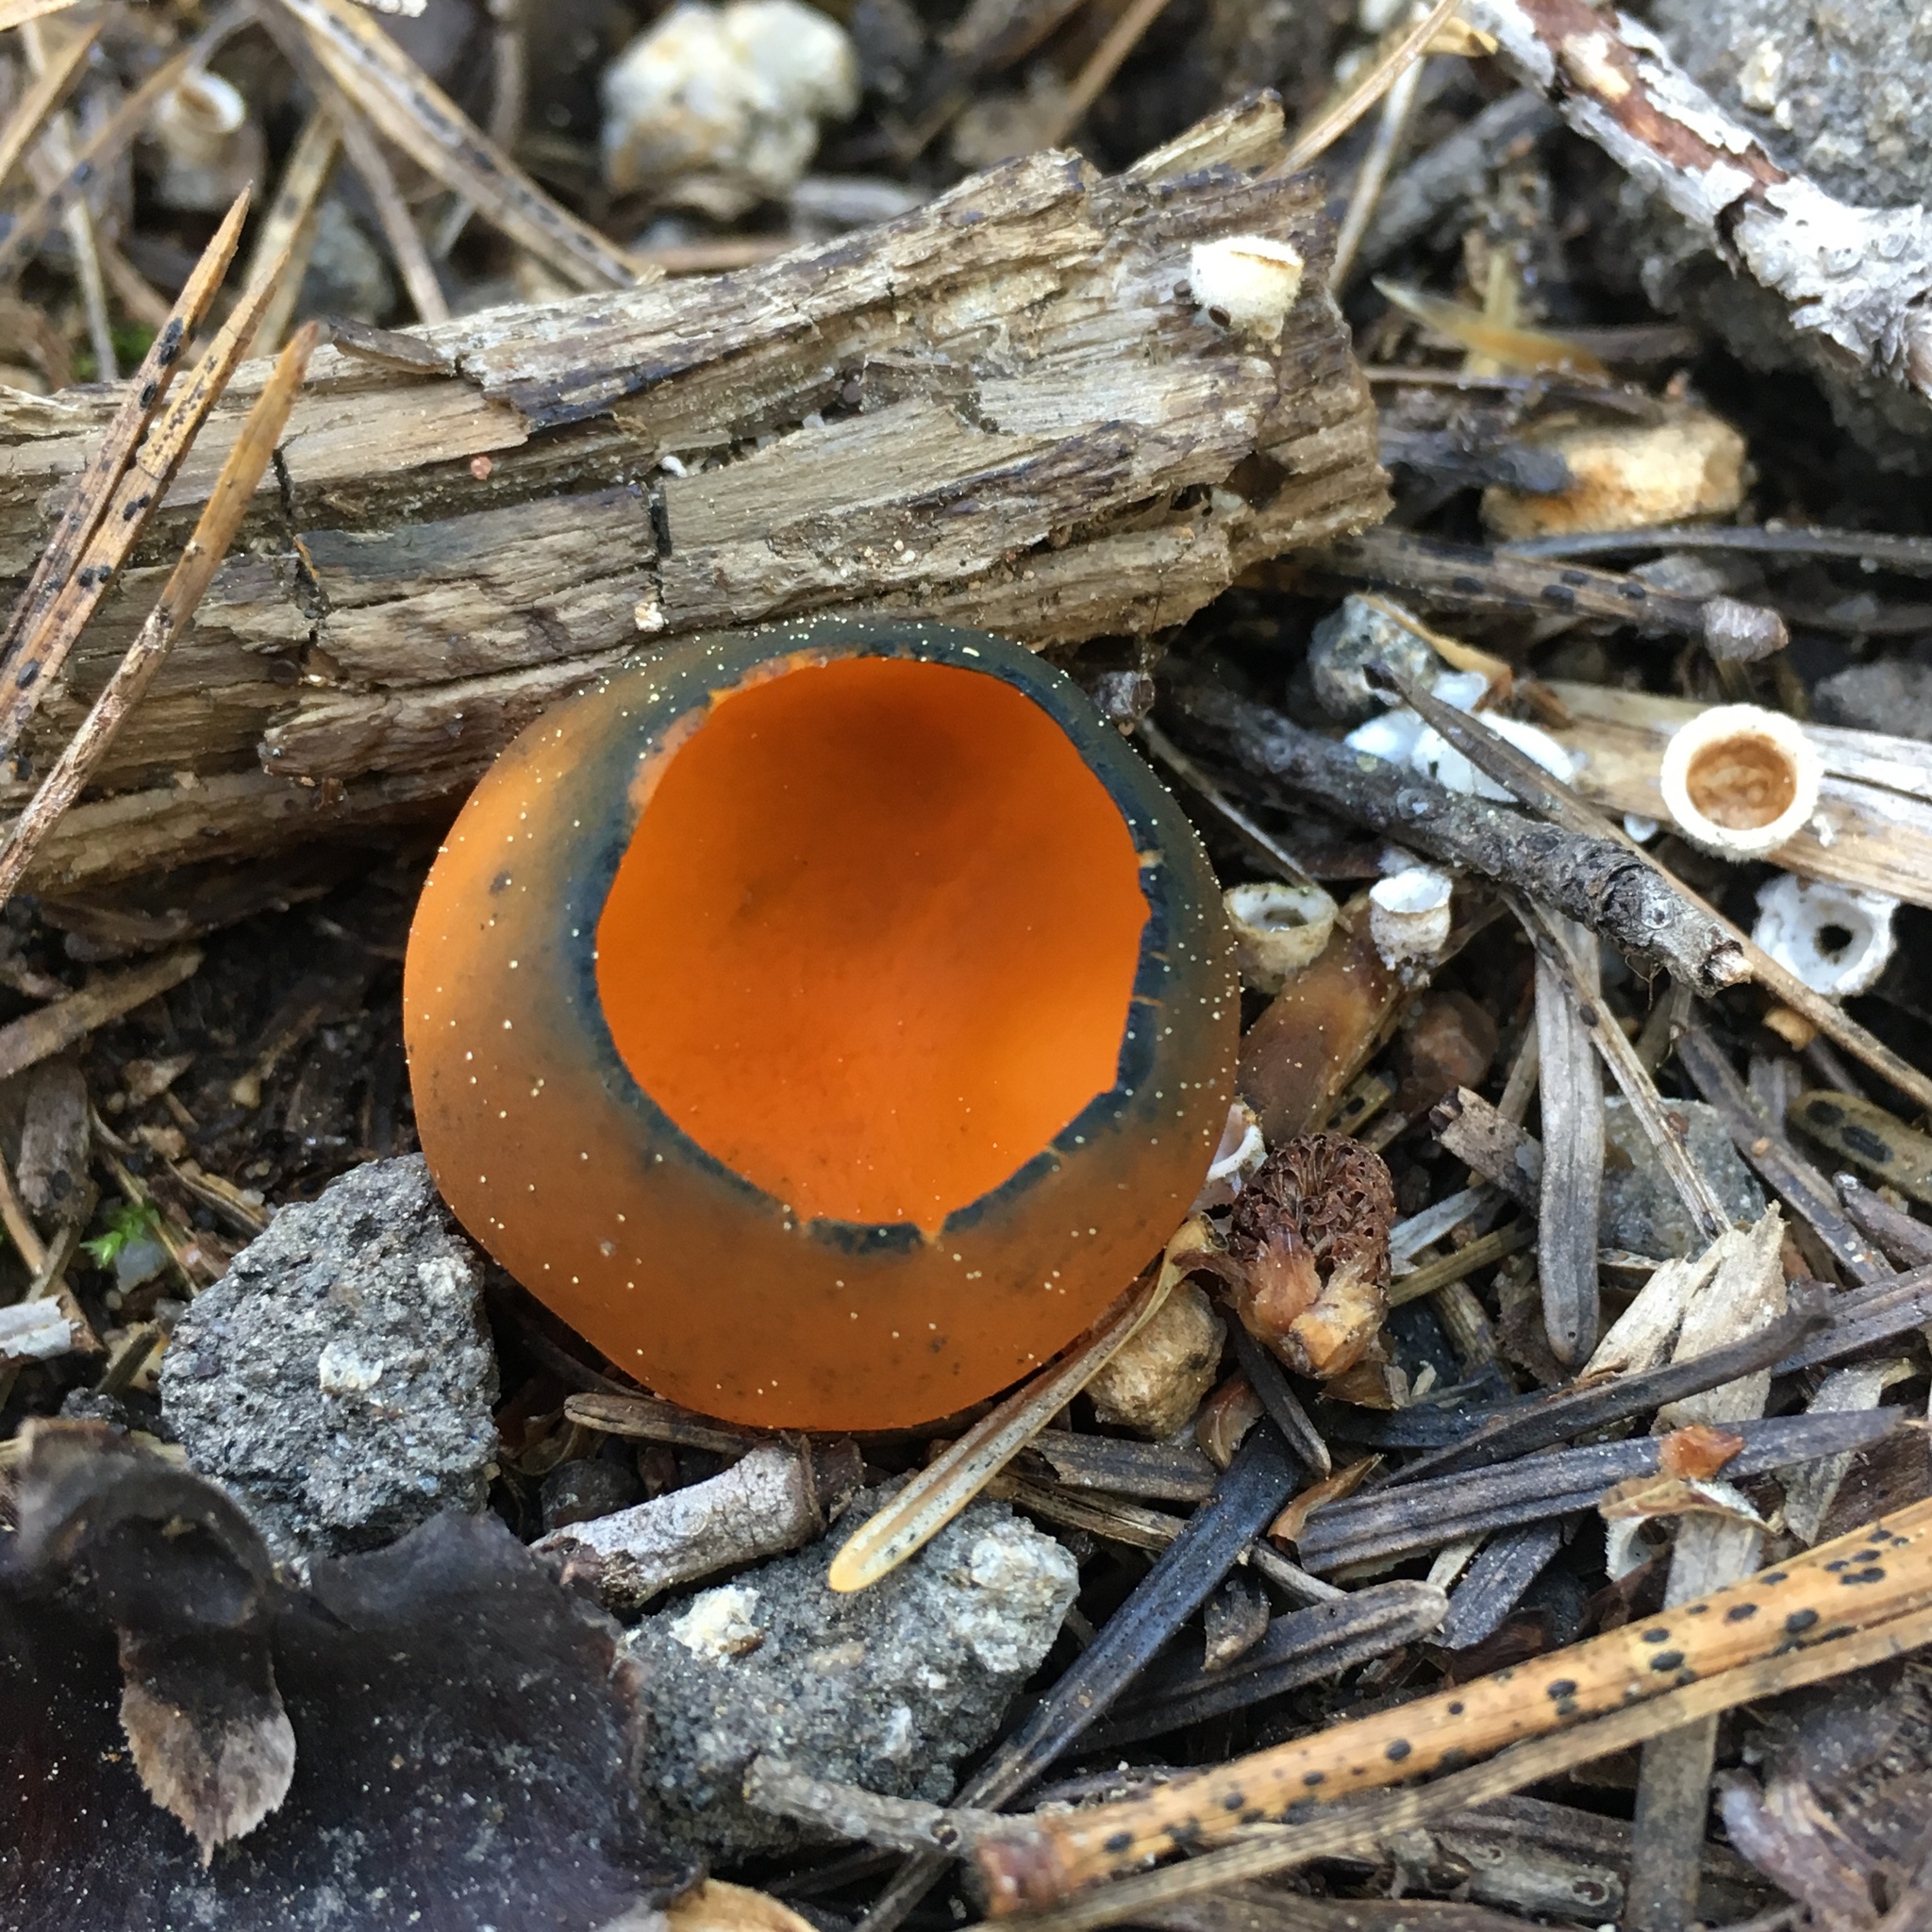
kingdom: Fungi
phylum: Ascomycota
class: Pezizomycetes
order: Pezizales
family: Caloscyphaceae
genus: Caloscypha
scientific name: Caloscypha fulgens
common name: Golden cup
